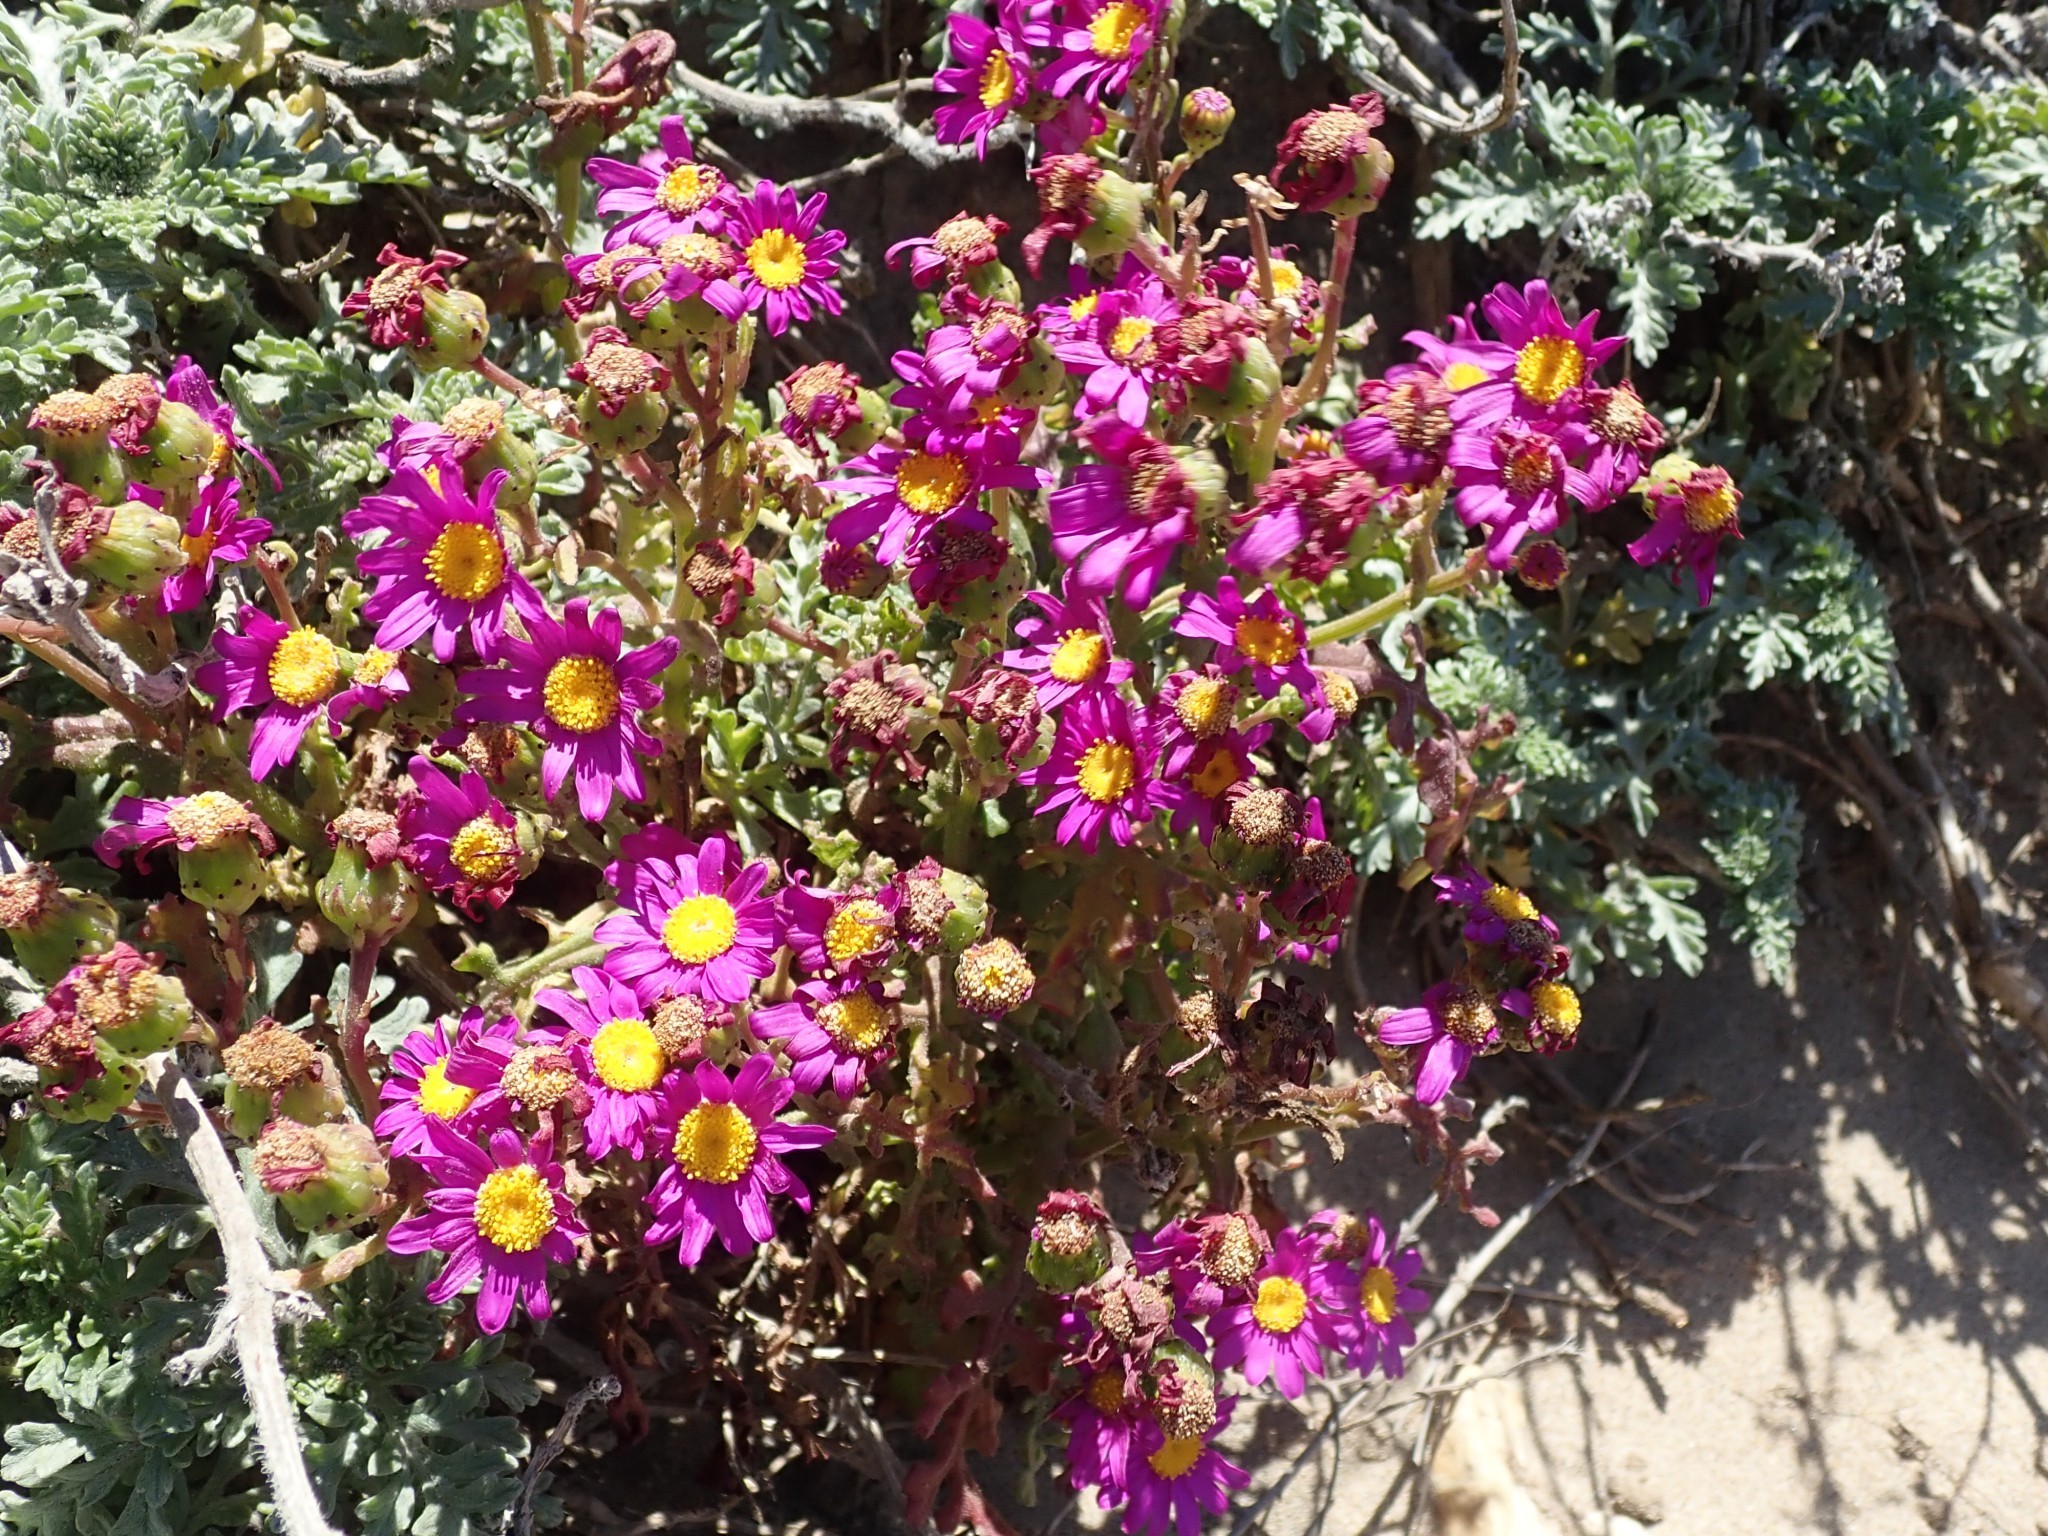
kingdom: Plantae
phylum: Tracheophyta
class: Magnoliopsida
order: Asterales
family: Asteraceae
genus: Senecio
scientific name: Senecio elegans
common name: Purple groundsel
